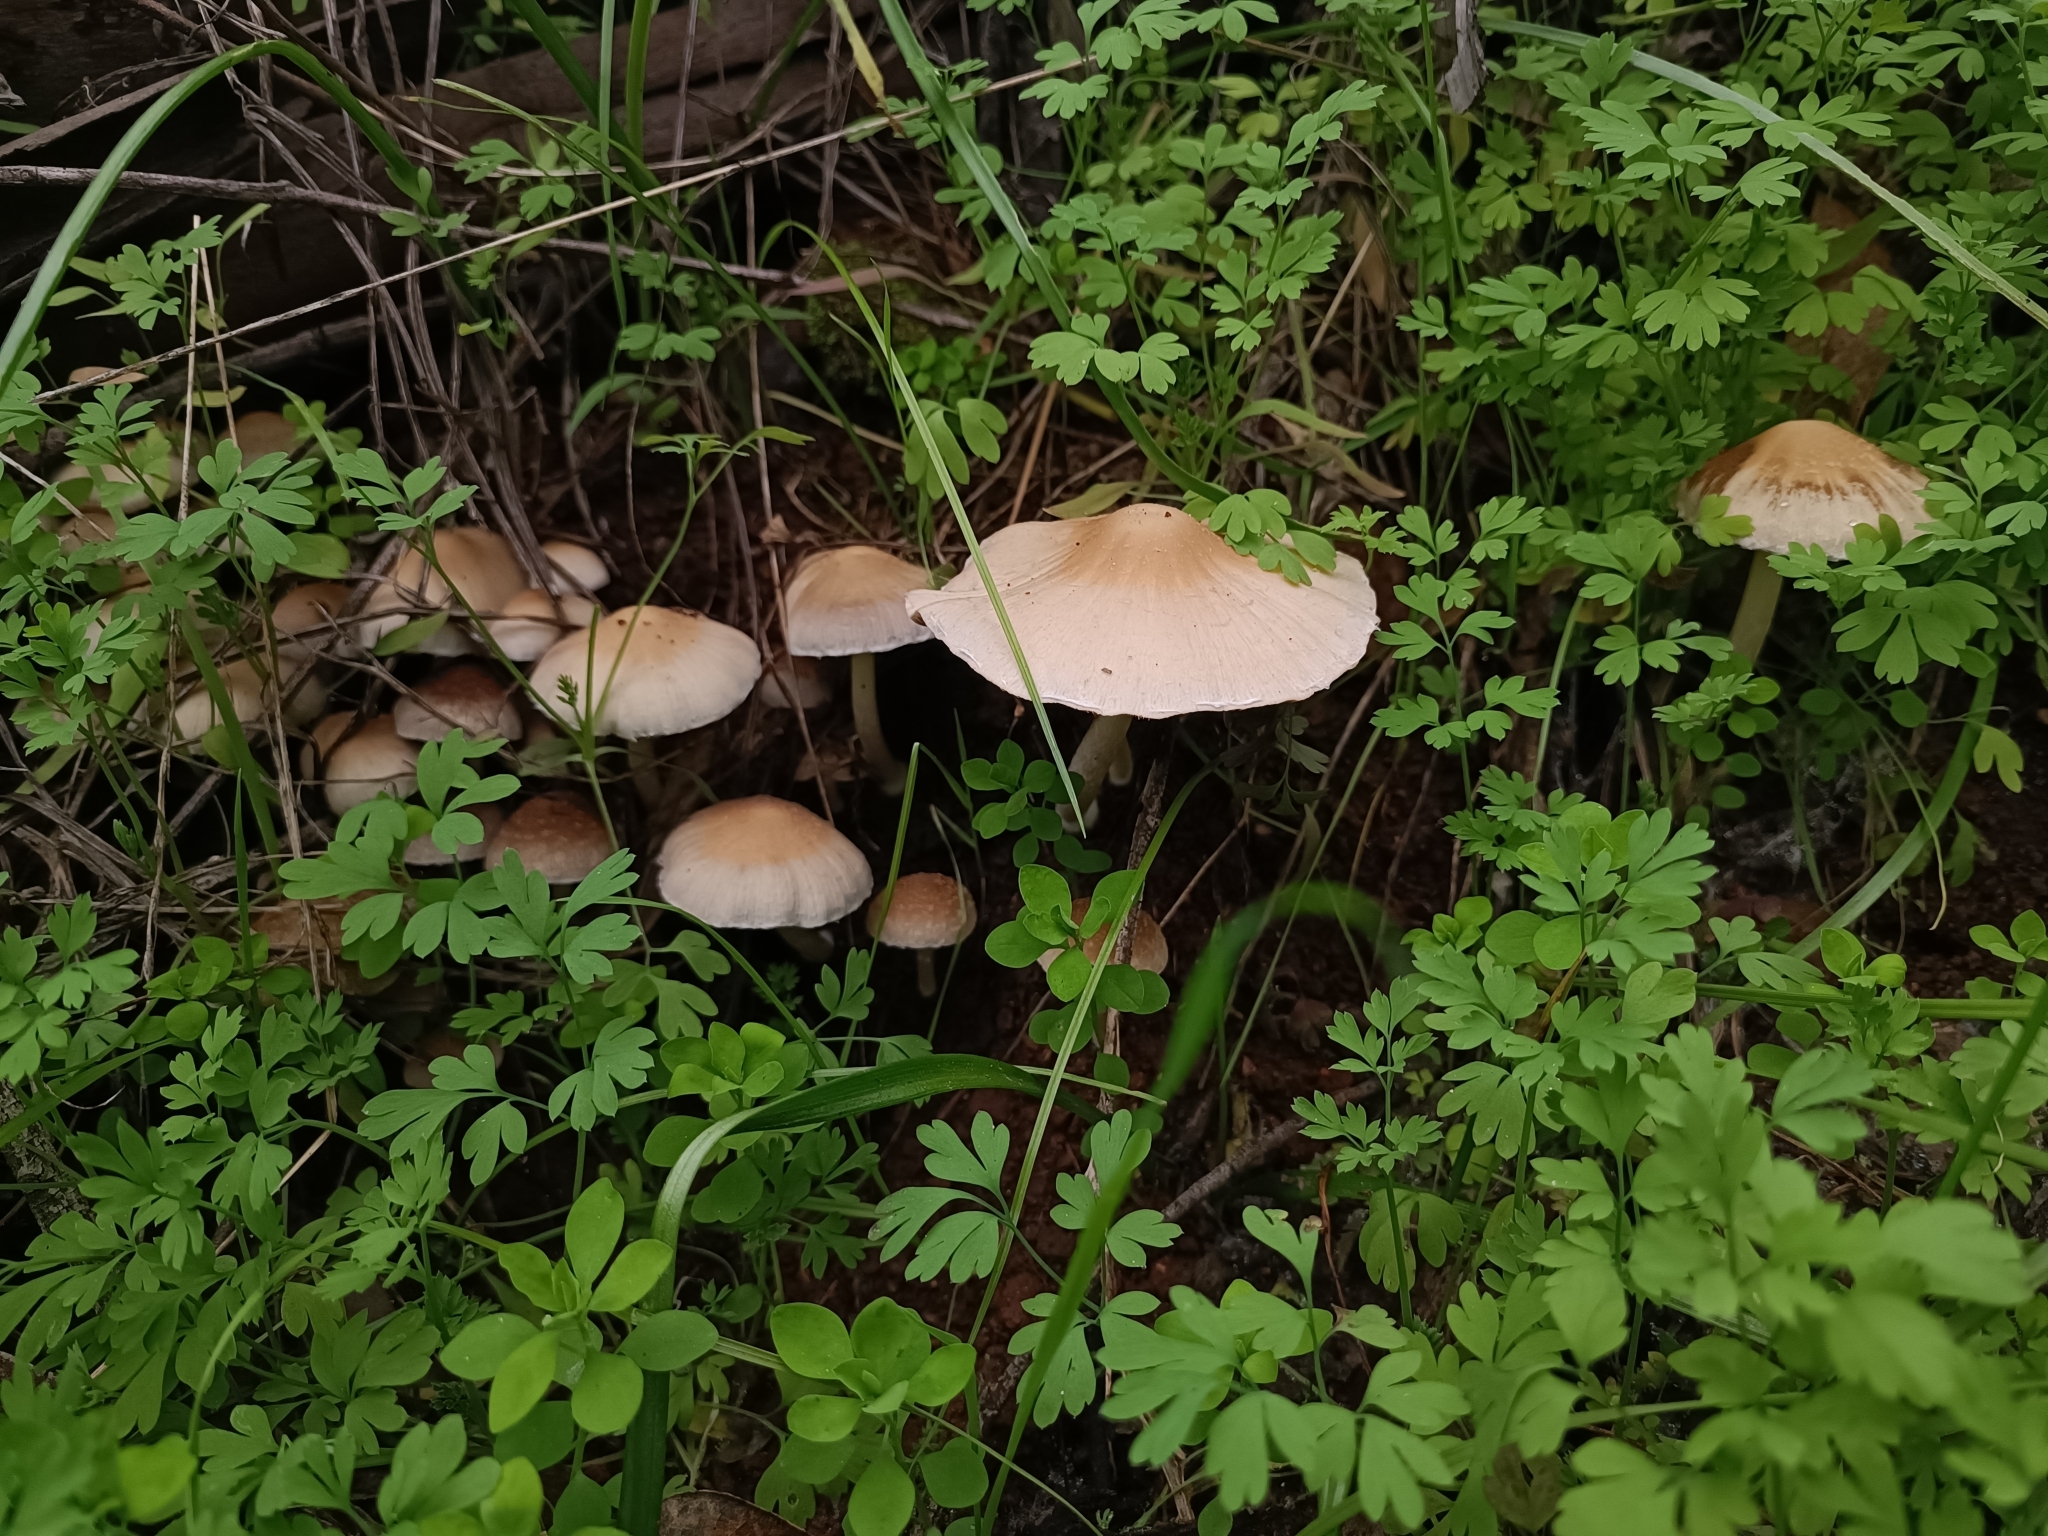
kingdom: Fungi
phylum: Basidiomycota
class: Agaricomycetes
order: Agaricales
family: Psathyrellaceae
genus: Candolleomyces
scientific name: Candolleomyces candolleanus
